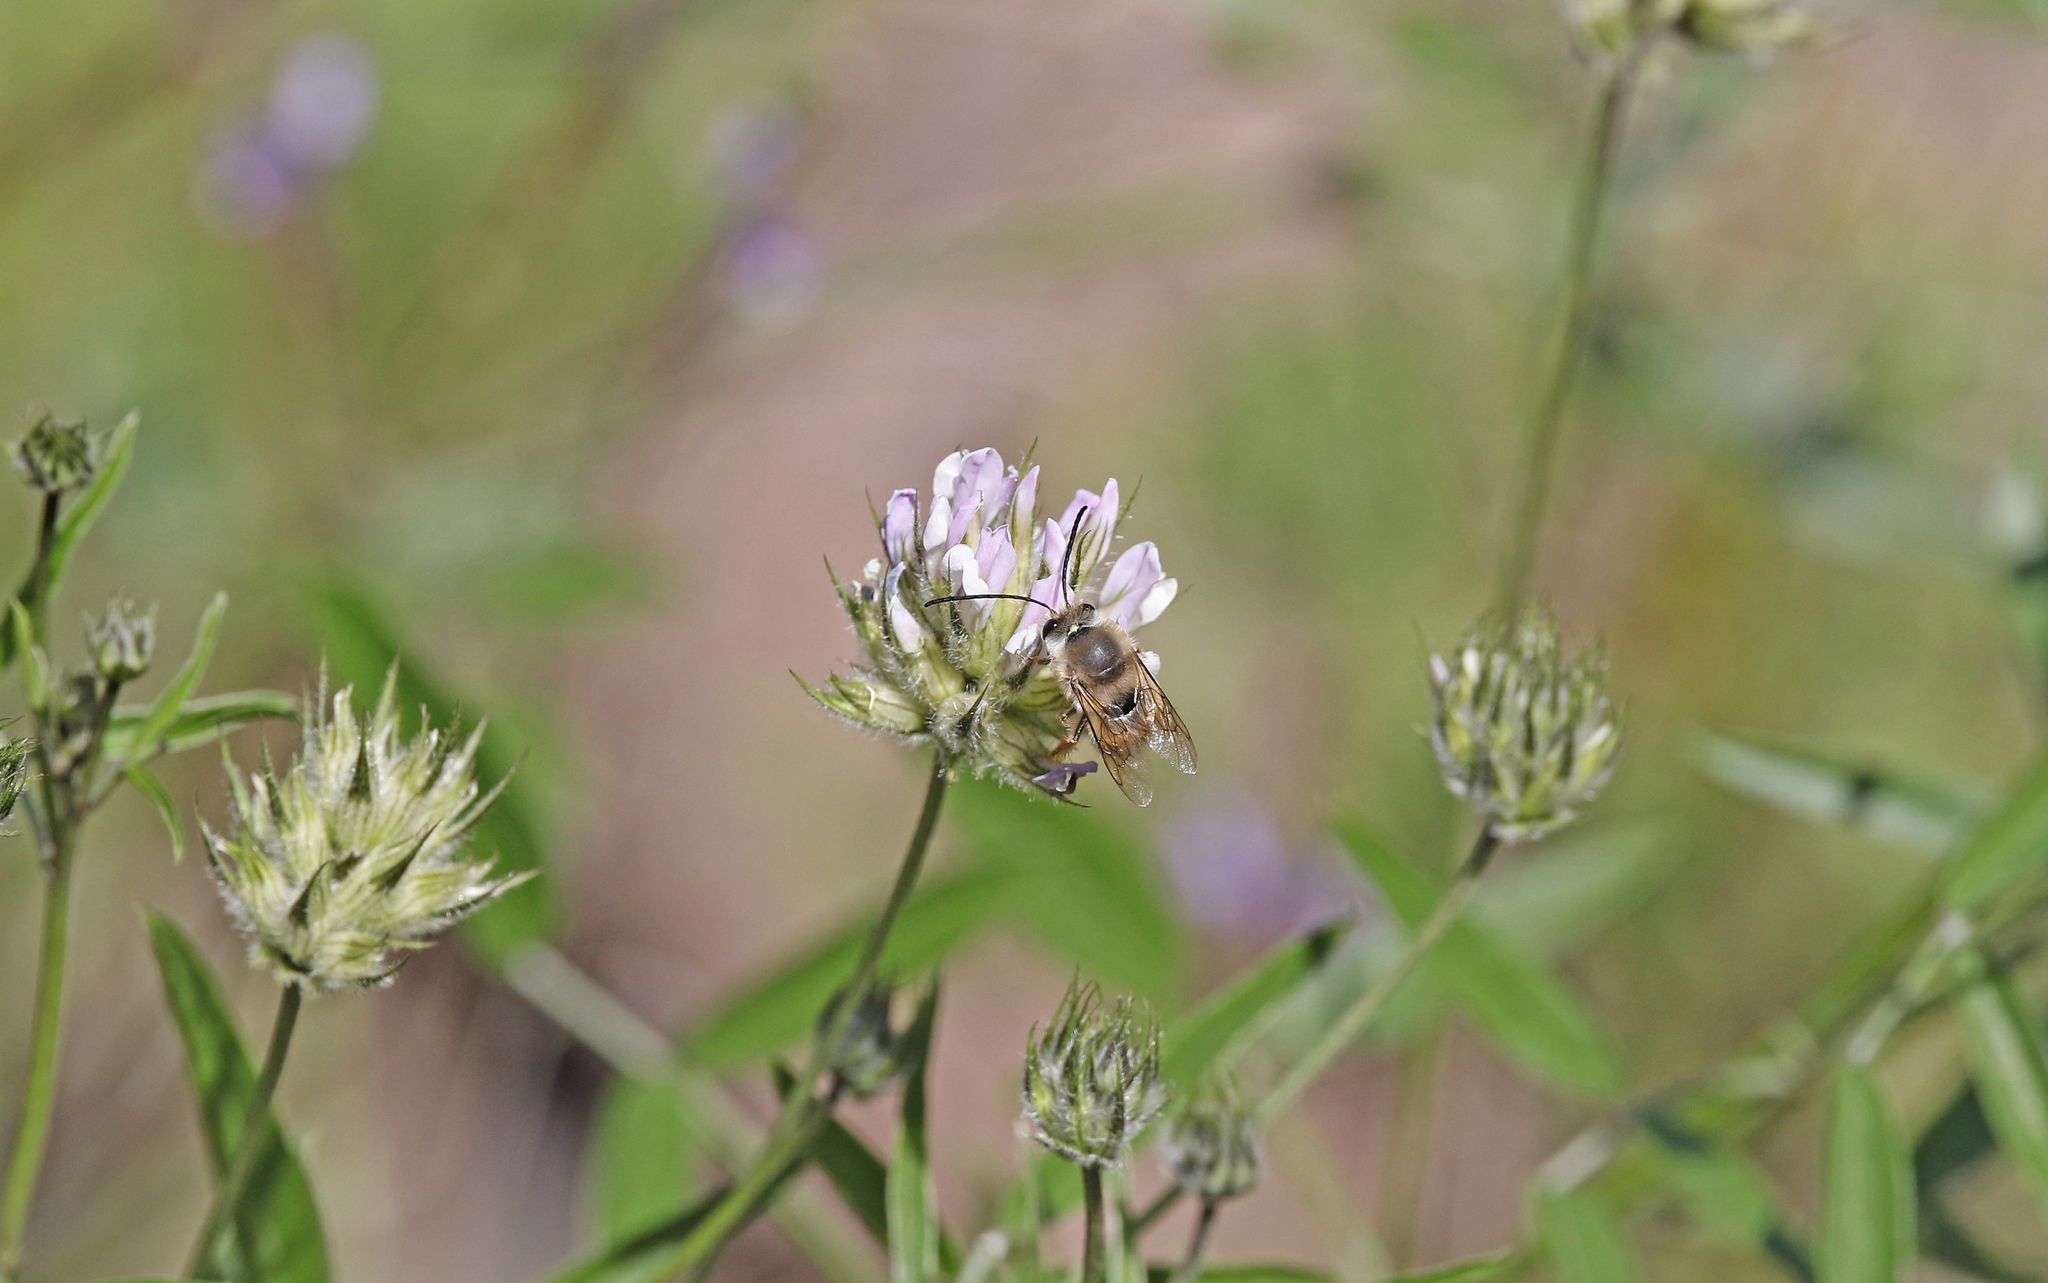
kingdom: Animalia
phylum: Arthropoda
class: Insecta
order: Hymenoptera
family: Apidae
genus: Eucera
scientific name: Eucera gracilipes
